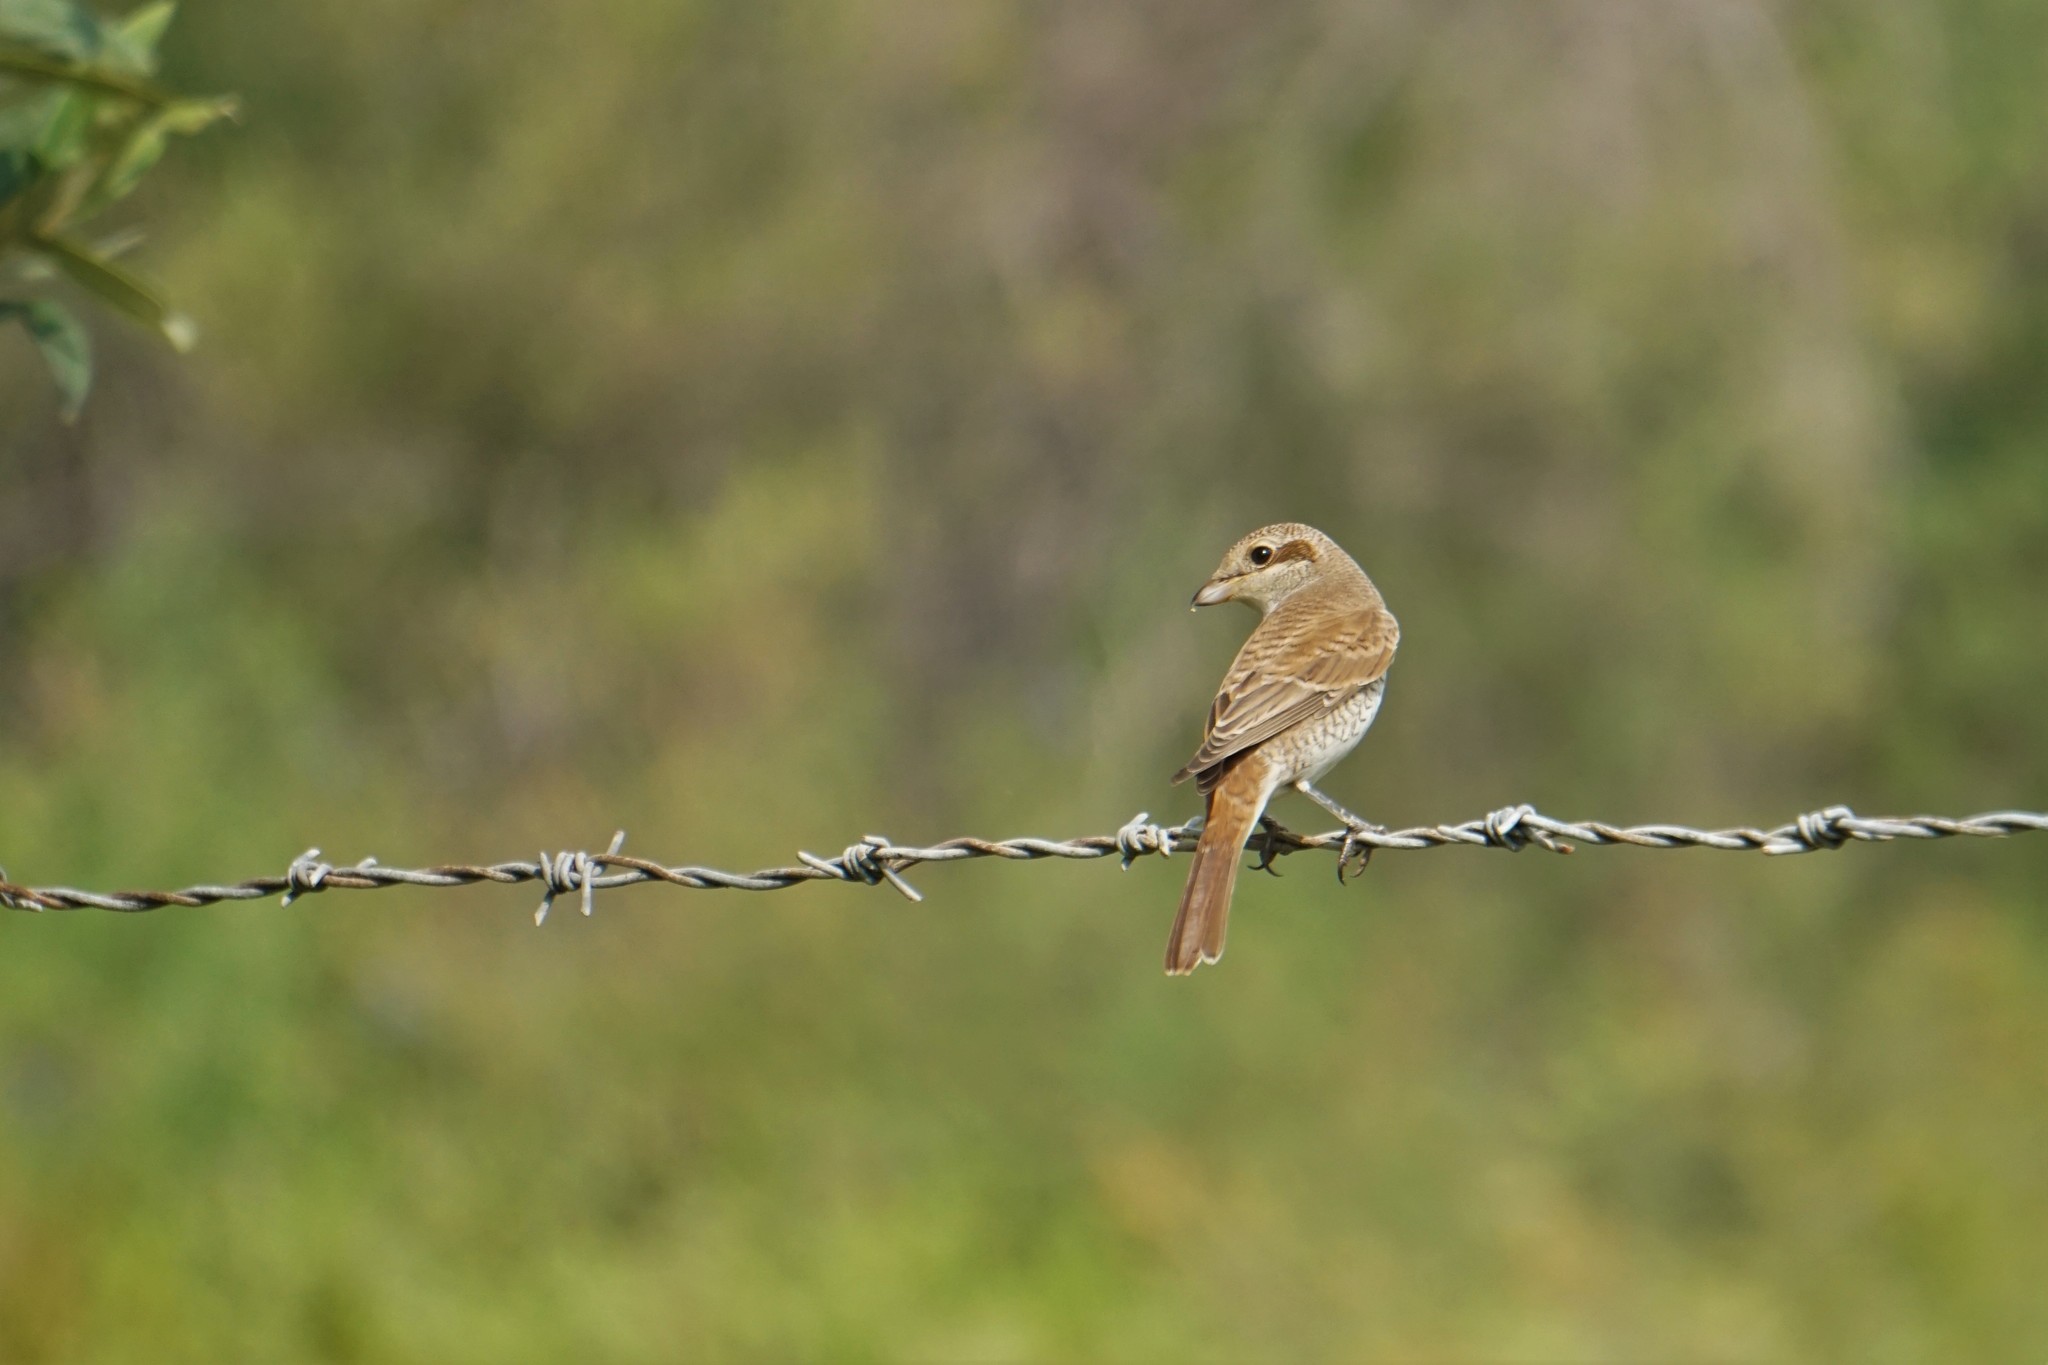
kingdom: Animalia
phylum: Chordata
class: Aves
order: Passeriformes
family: Laniidae
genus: Lanius
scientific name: Lanius collurio
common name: Red-backed shrike
